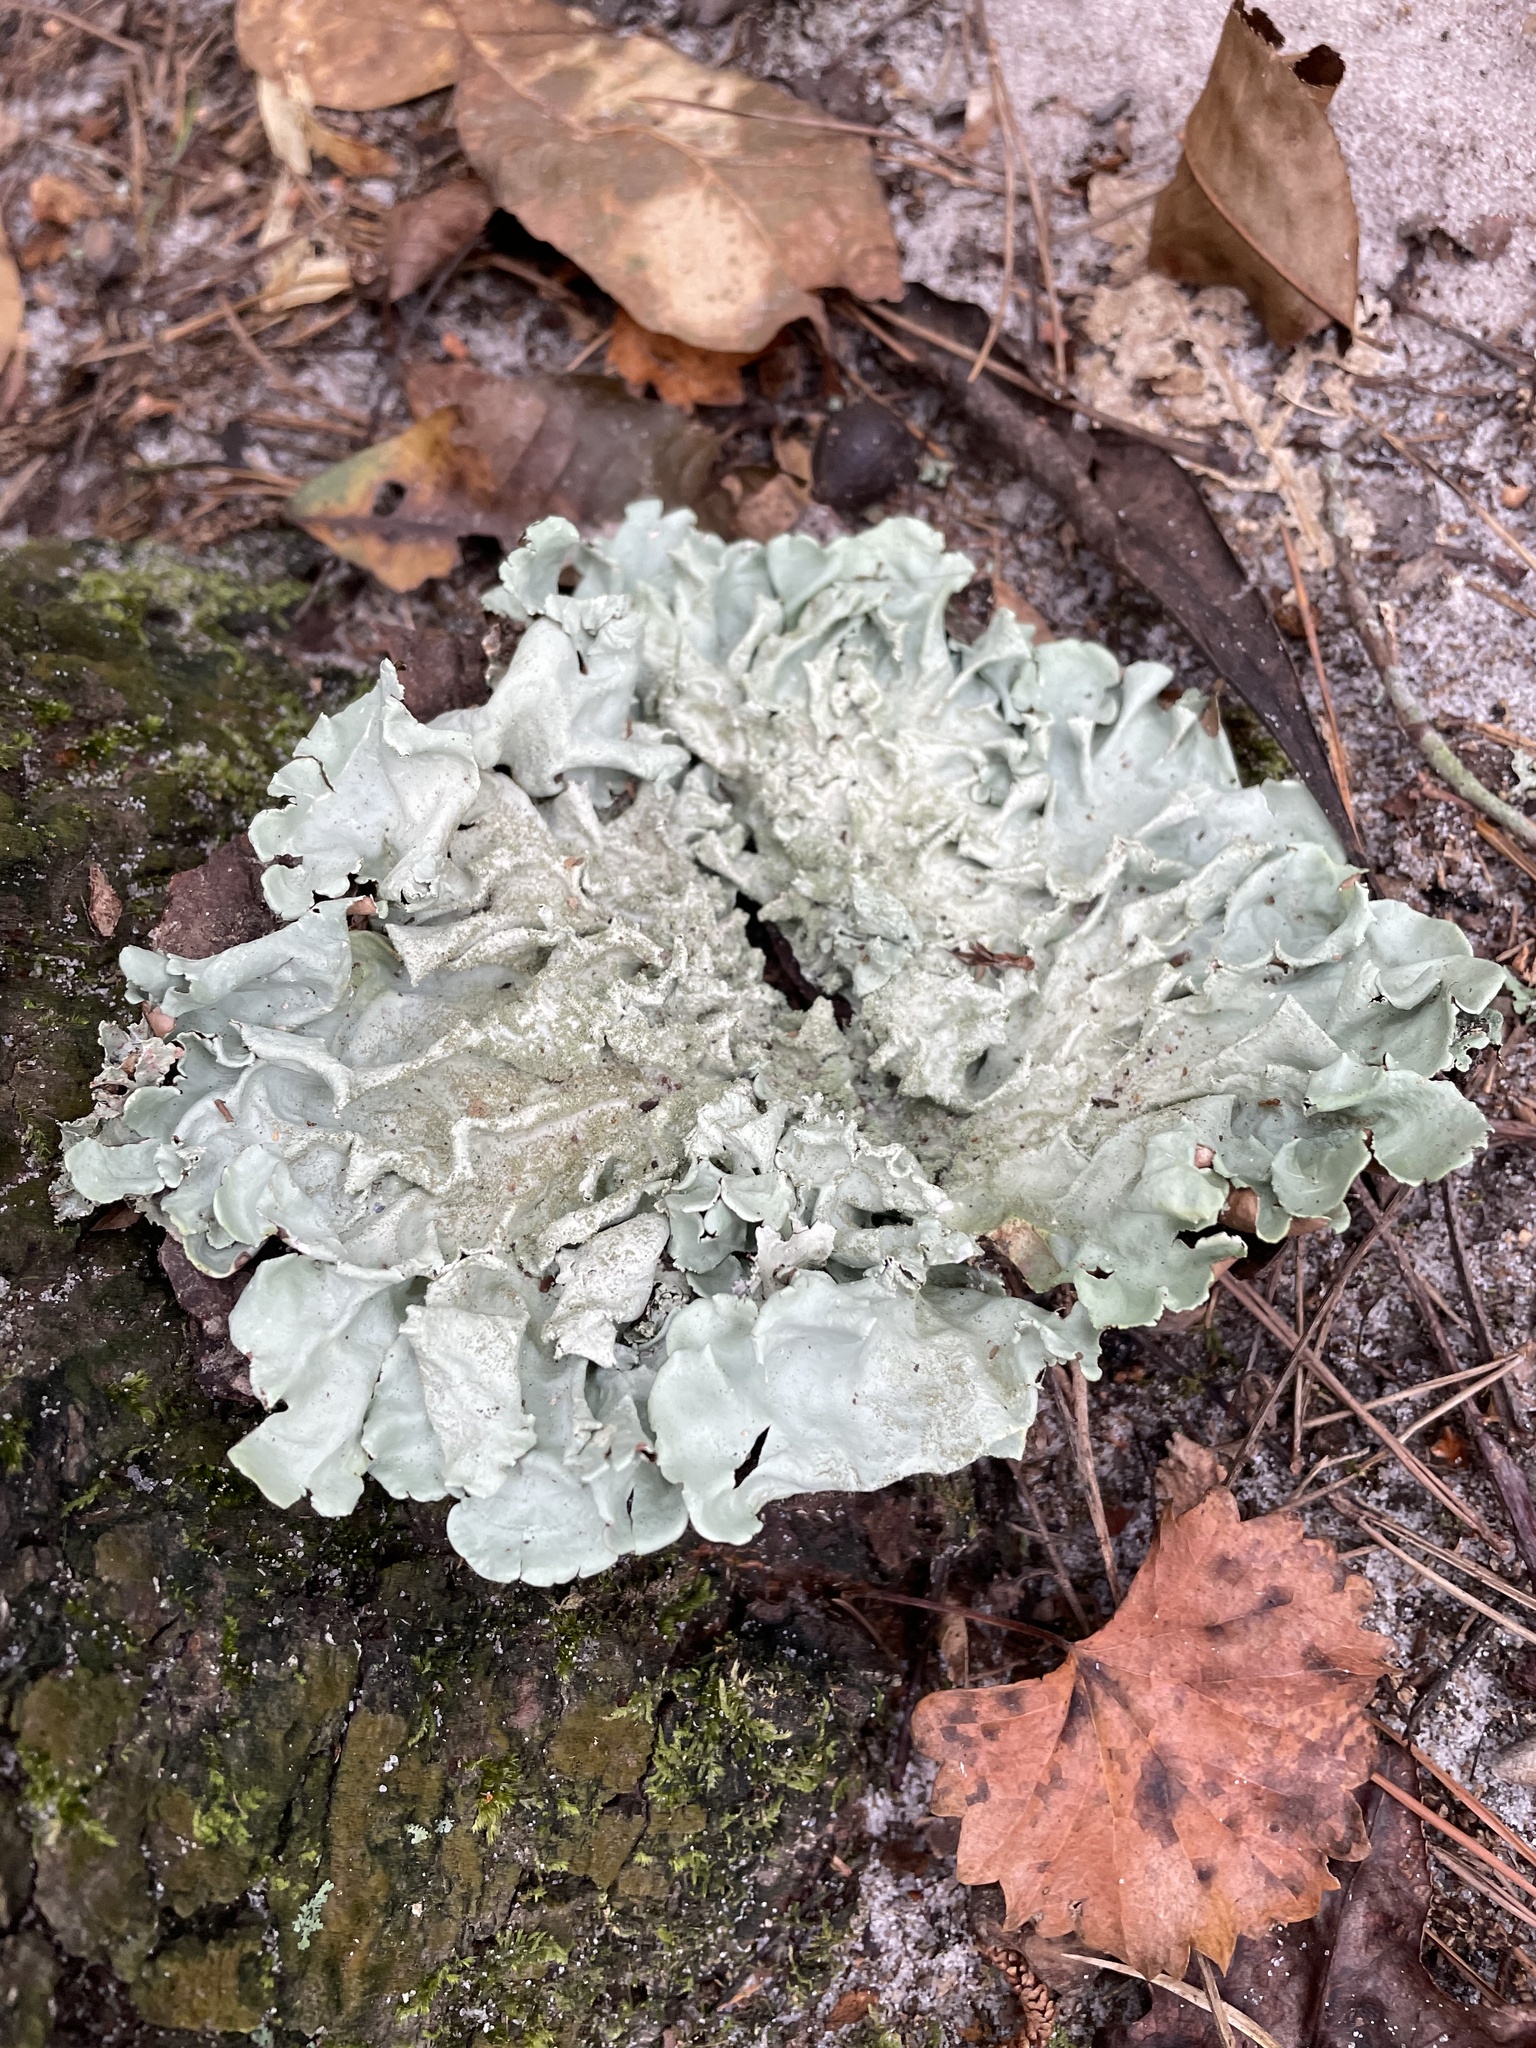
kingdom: Fungi
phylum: Ascomycota
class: Lecanoromycetes
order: Lecanorales
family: Parmeliaceae
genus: Flavoparmelia
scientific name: Flavoparmelia caperata
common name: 40-mile per hour lichen
